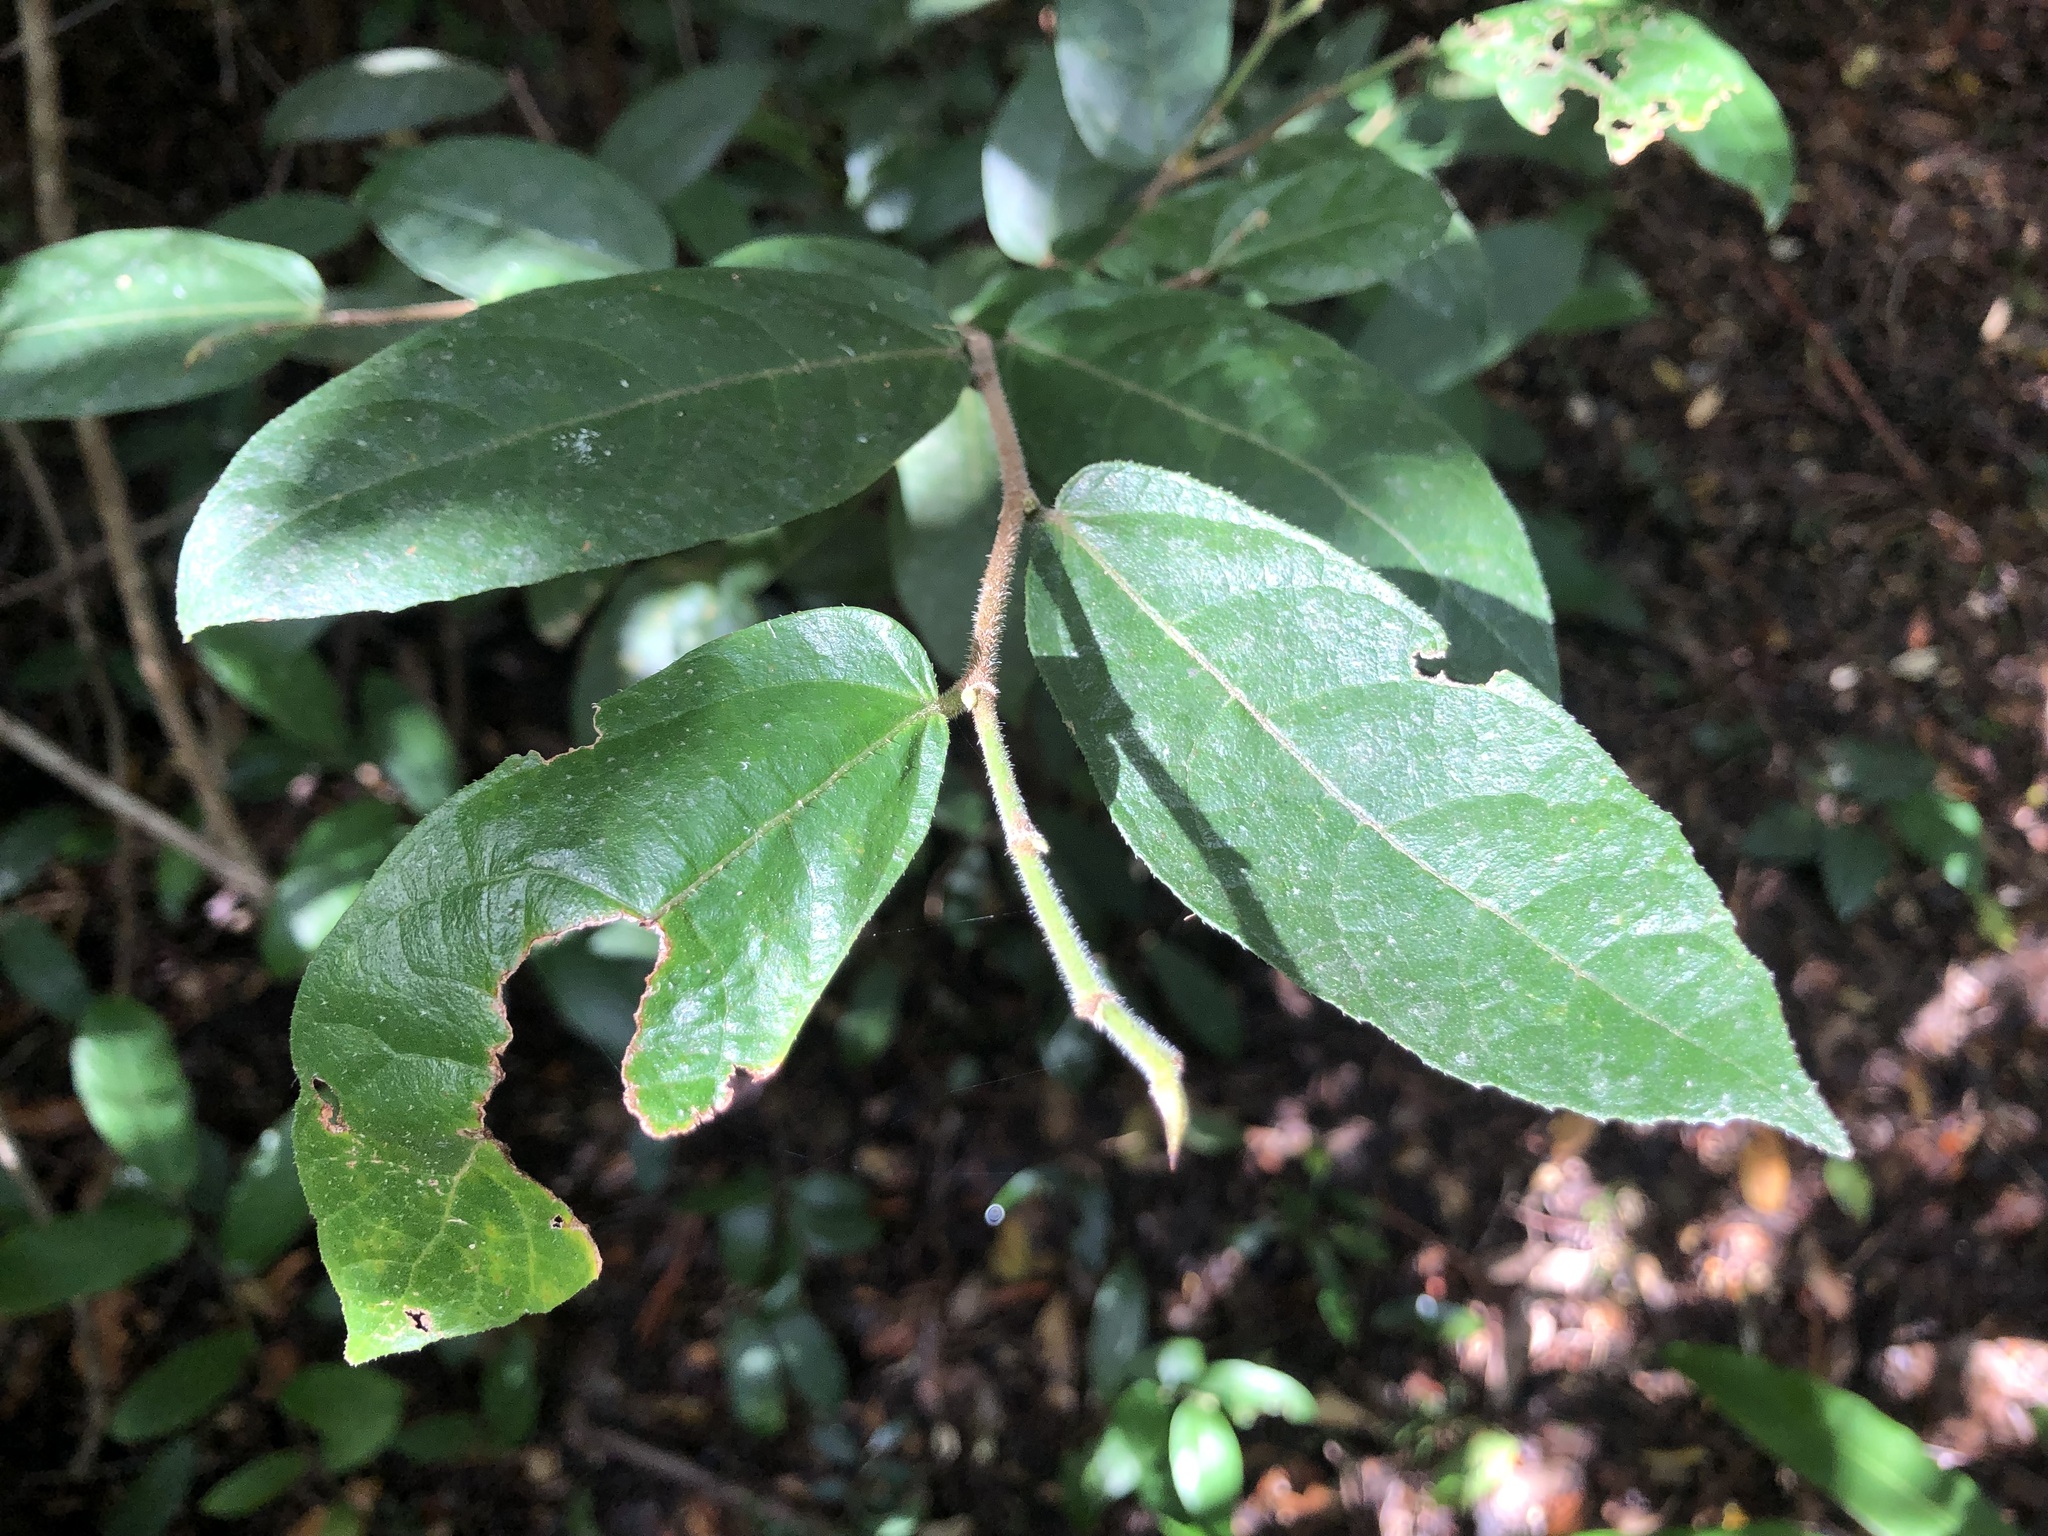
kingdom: Plantae
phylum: Tracheophyta
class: Magnoliopsida
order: Rosales
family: Moraceae
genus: Ficus
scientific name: Ficus coronata
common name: Creek sandpaper fig
